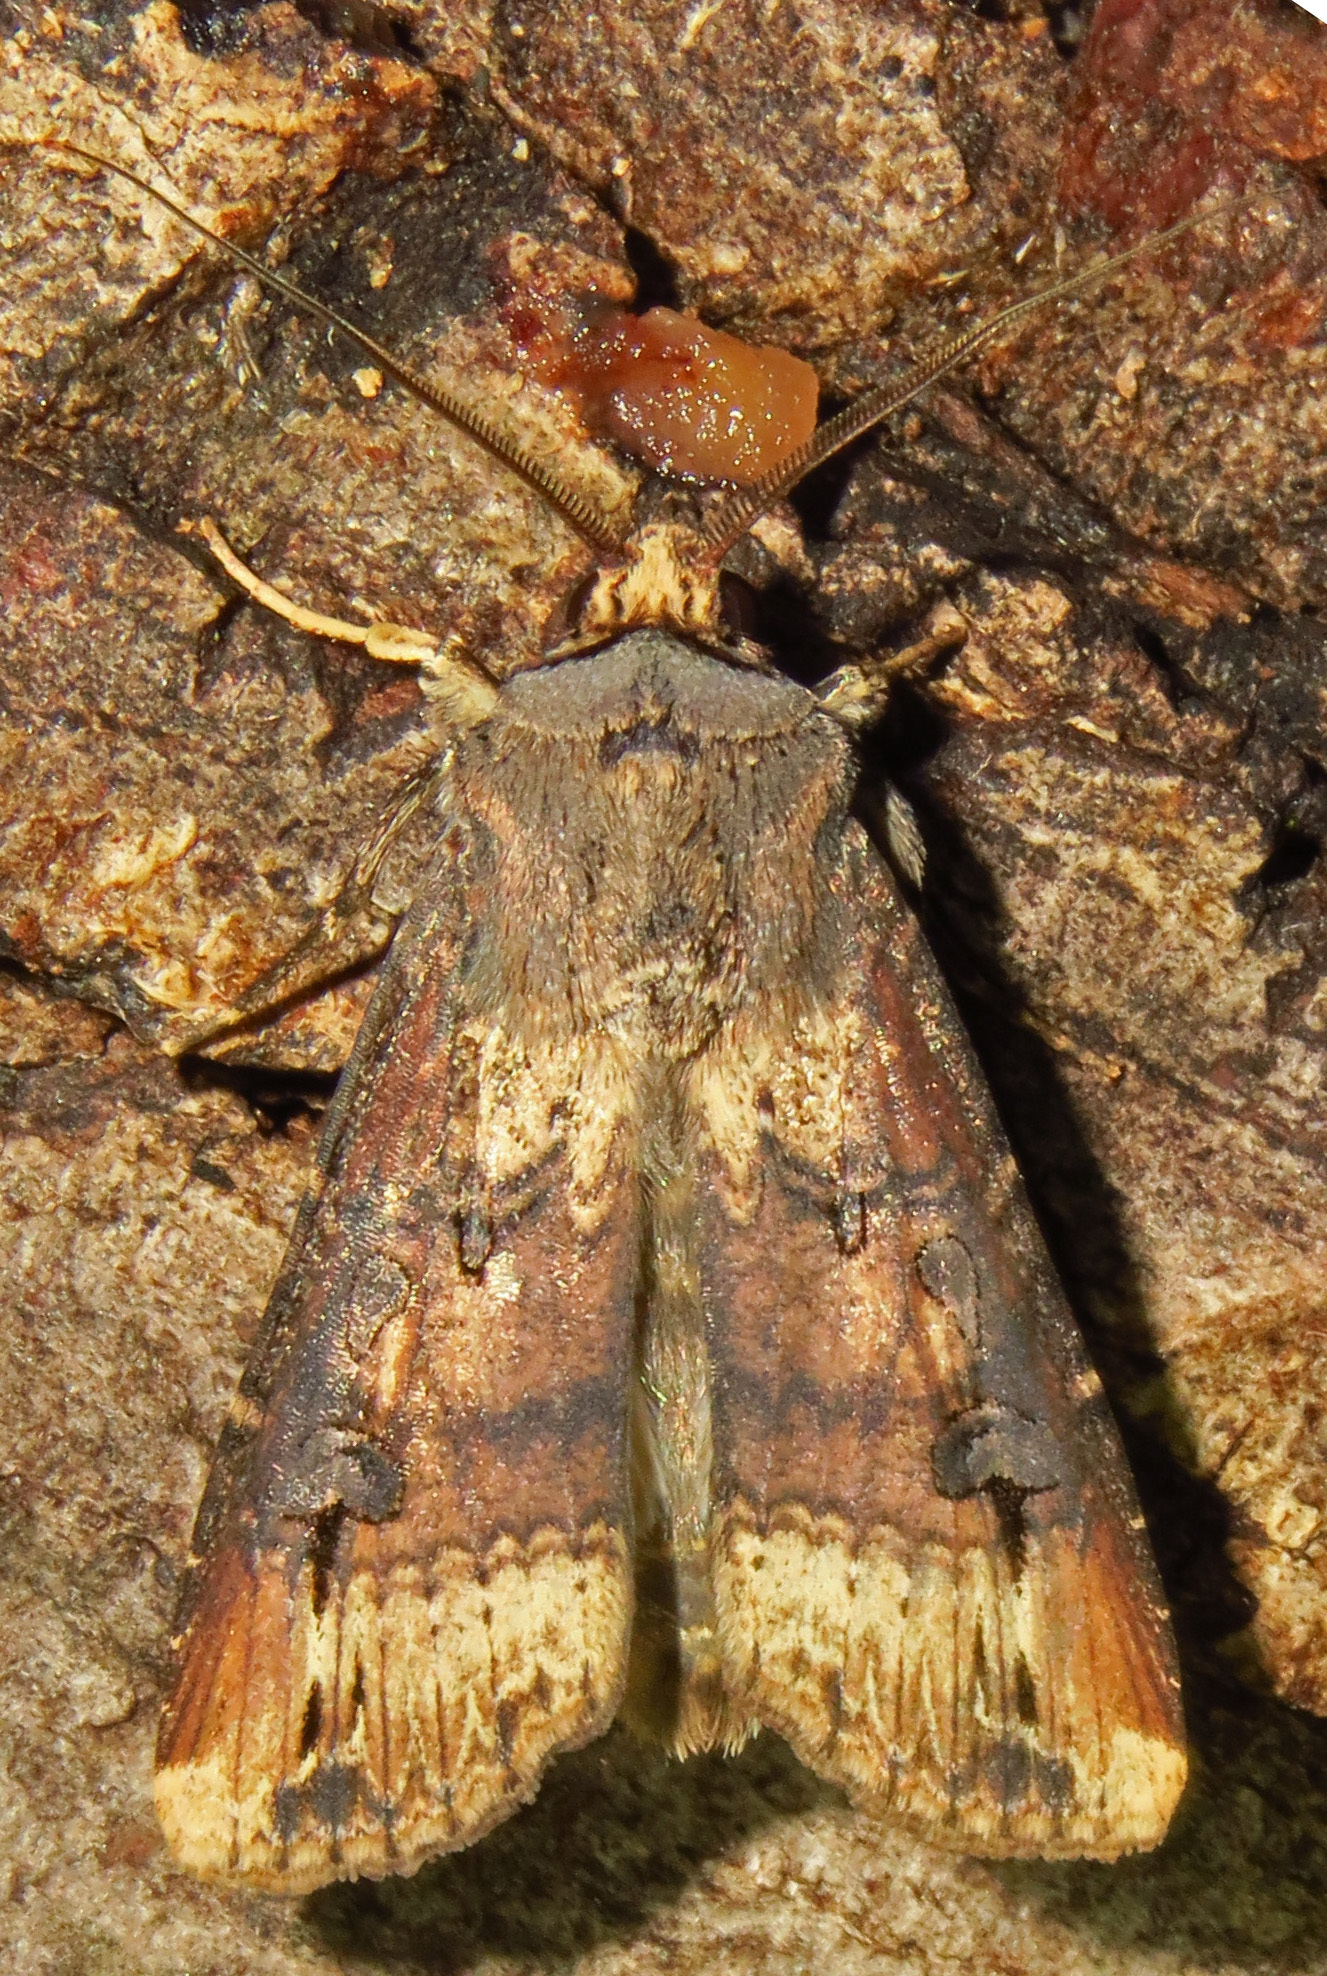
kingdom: Animalia
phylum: Arthropoda
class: Insecta
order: Lepidoptera
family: Noctuidae
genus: Agrotis
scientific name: Agrotis ipsilon
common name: Dark sword-grass
